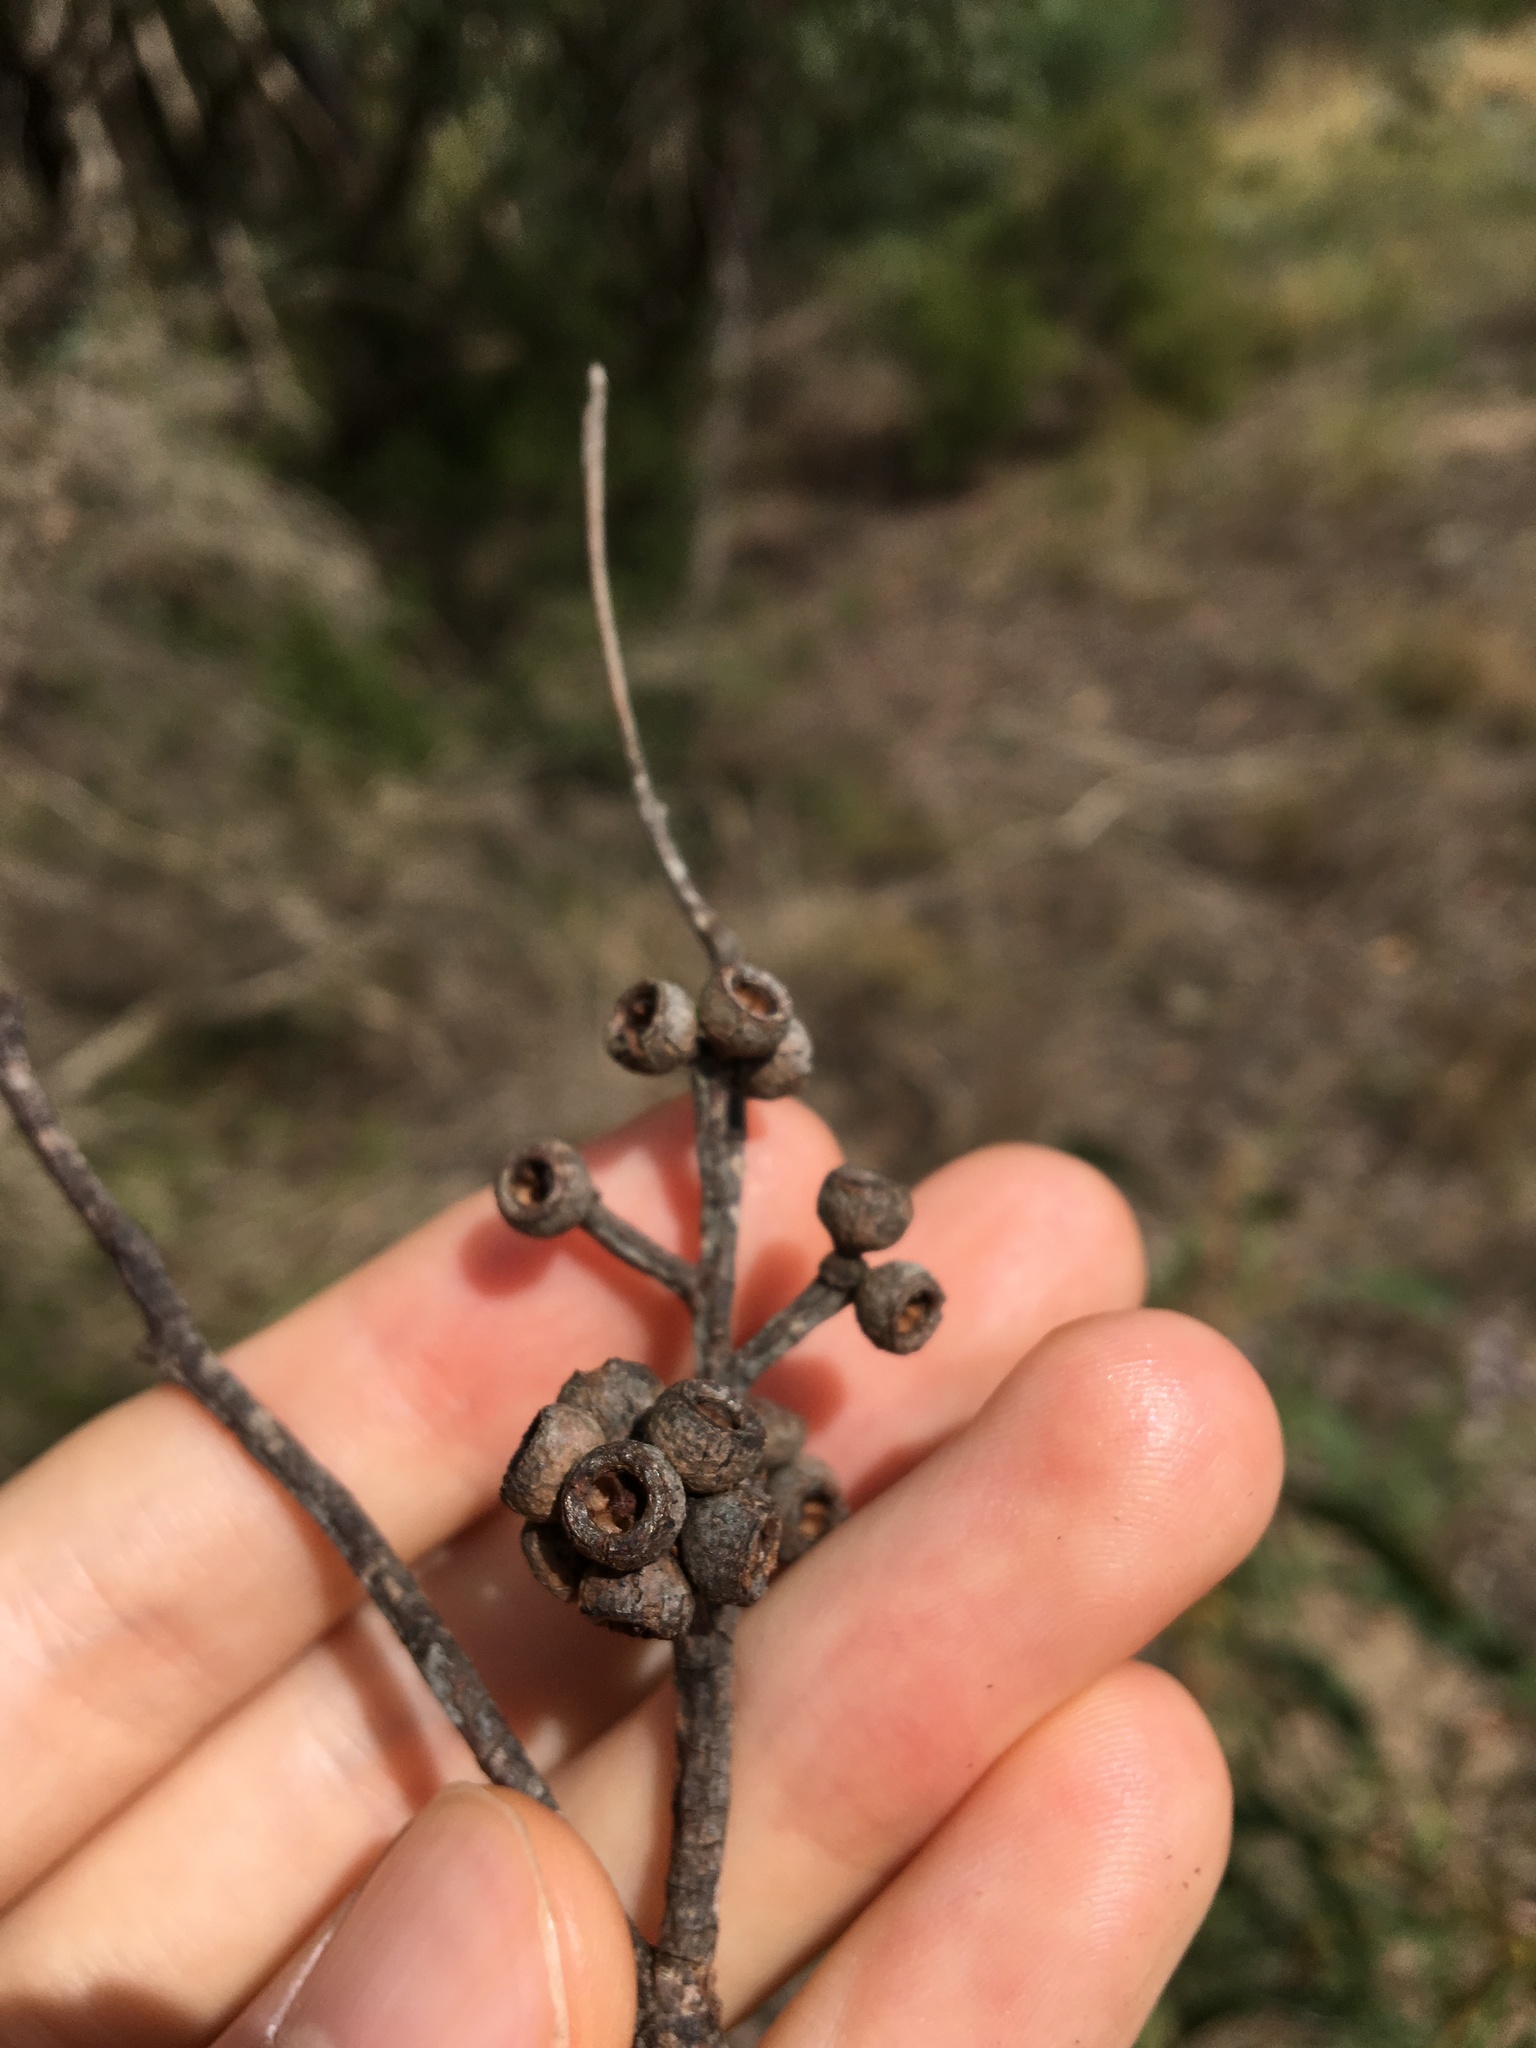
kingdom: Plantae
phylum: Tracheophyta
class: Magnoliopsida
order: Myrtales
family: Myrtaceae
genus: Eucalyptus
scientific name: Eucalyptus capitellata
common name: Brown-stringy-bark
